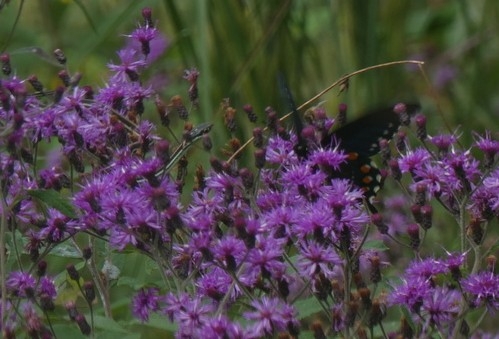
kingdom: Animalia
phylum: Arthropoda
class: Insecta
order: Lepidoptera
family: Papilionidae
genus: Battus
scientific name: Battus philenor
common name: Pipevine swallowtail
